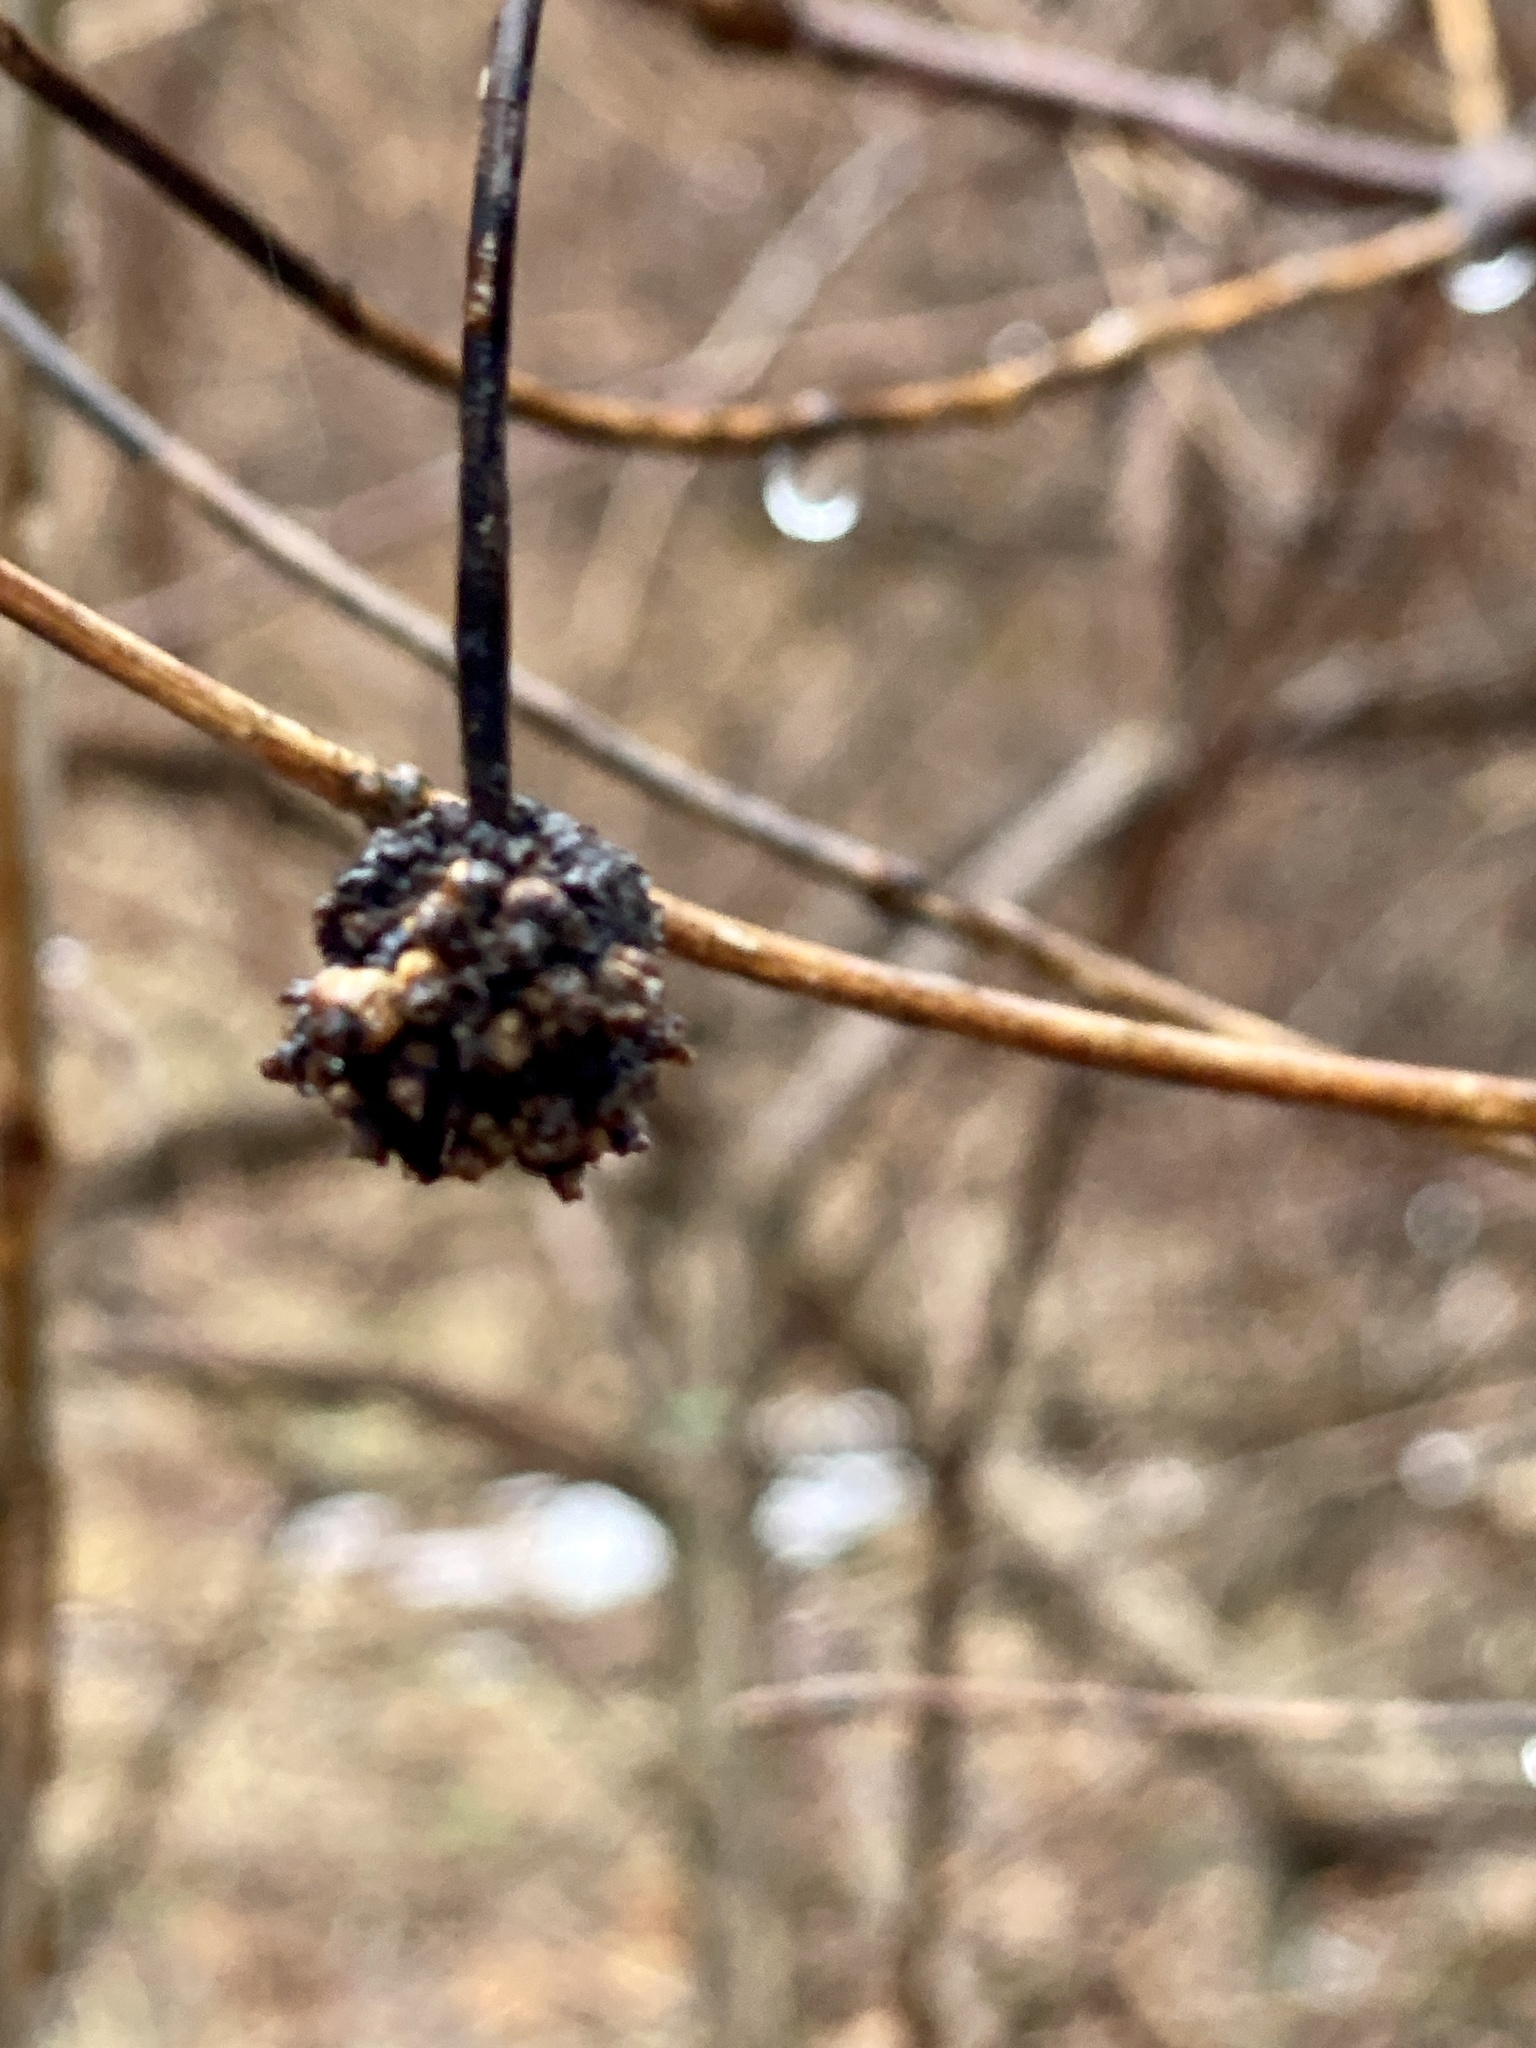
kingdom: Plantae
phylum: Tracheophyta
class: Magnoliopsida
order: Gentianales
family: Rubiaceae
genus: Cephalanthus
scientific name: Cephalanthus occidentalis
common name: Button-willow
